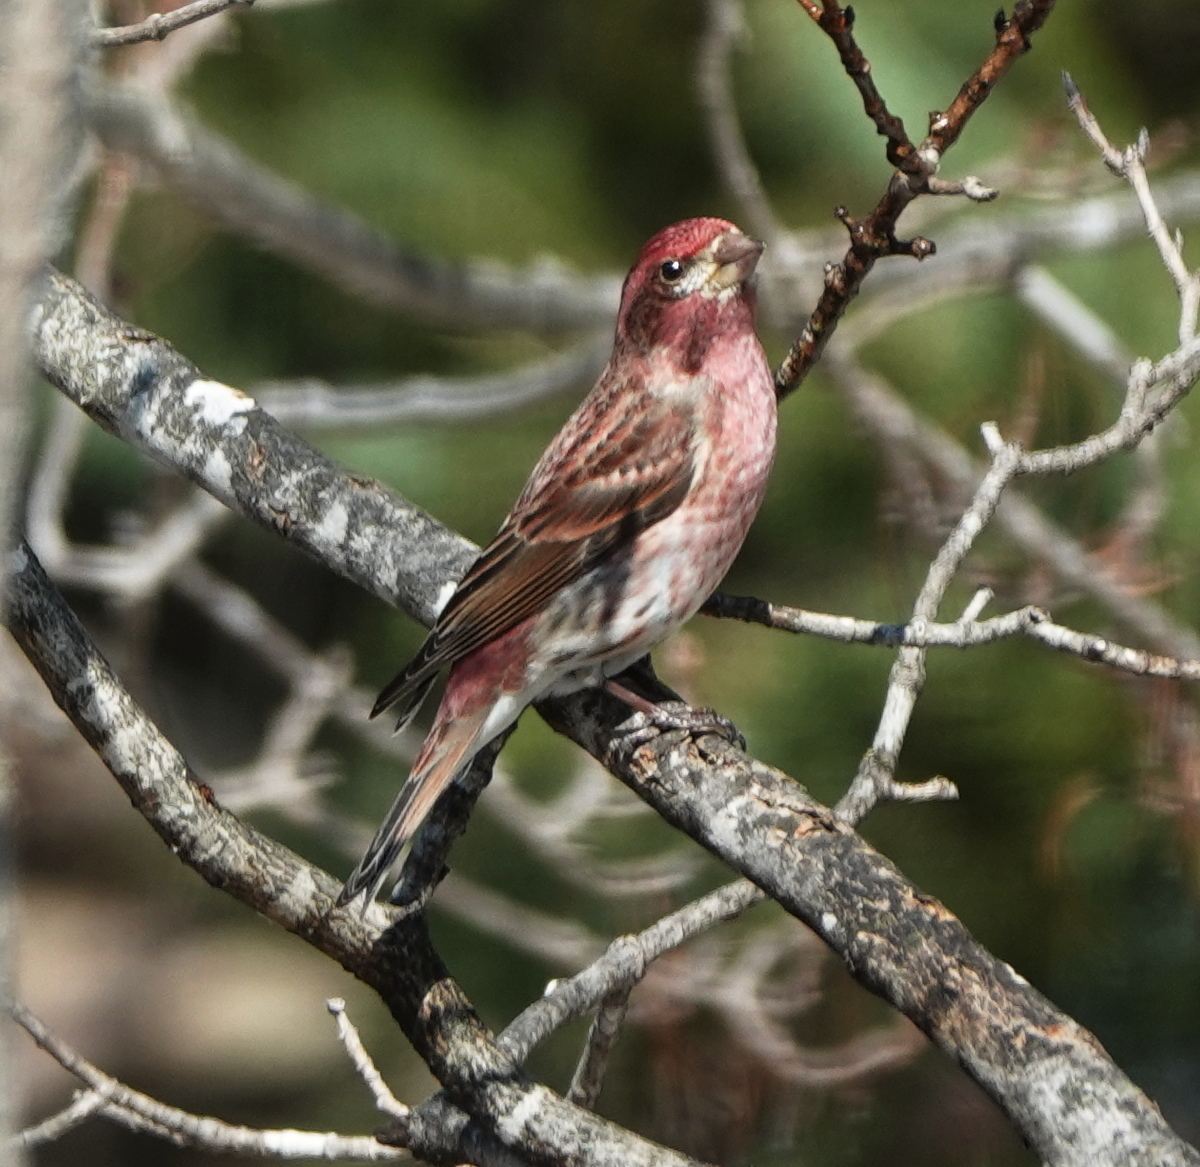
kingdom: Animalia
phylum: Chordata
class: Aves
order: Passeriformes
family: Fringillidae
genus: Haemorhous
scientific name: Haemorhous purpureus
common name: Purple finch
